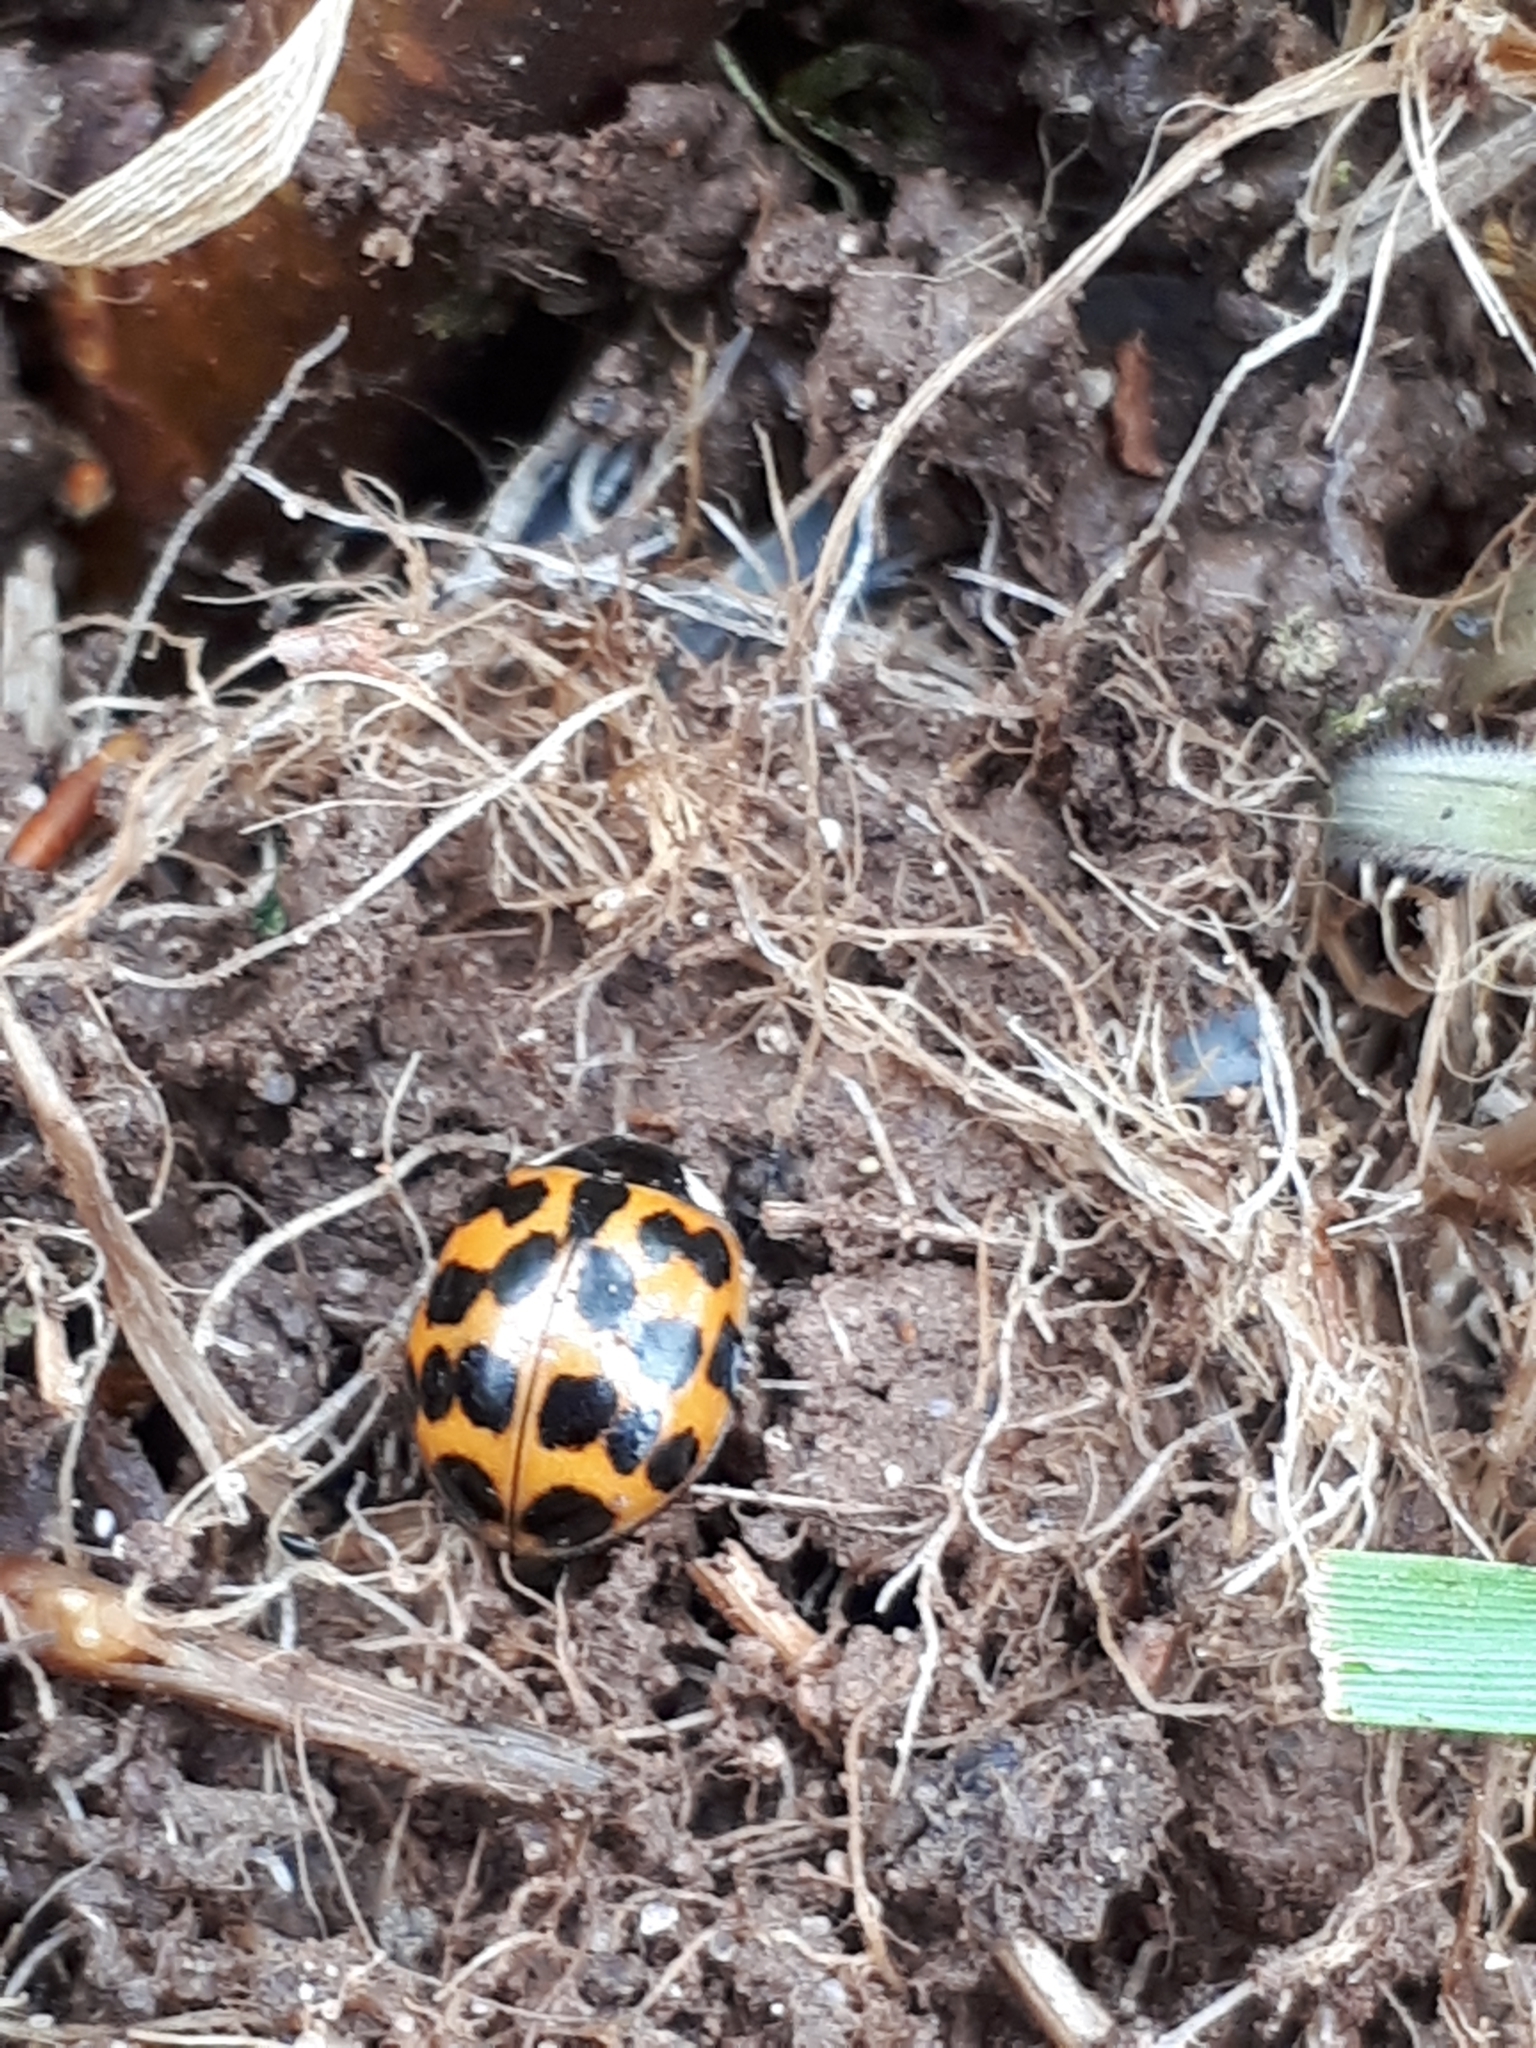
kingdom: Animalia
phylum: Arthropoda
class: Insecta
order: Coleoptera
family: Coccinellidae
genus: Harmonia
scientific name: Harmonia axyridis
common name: Harlequin ladybird
